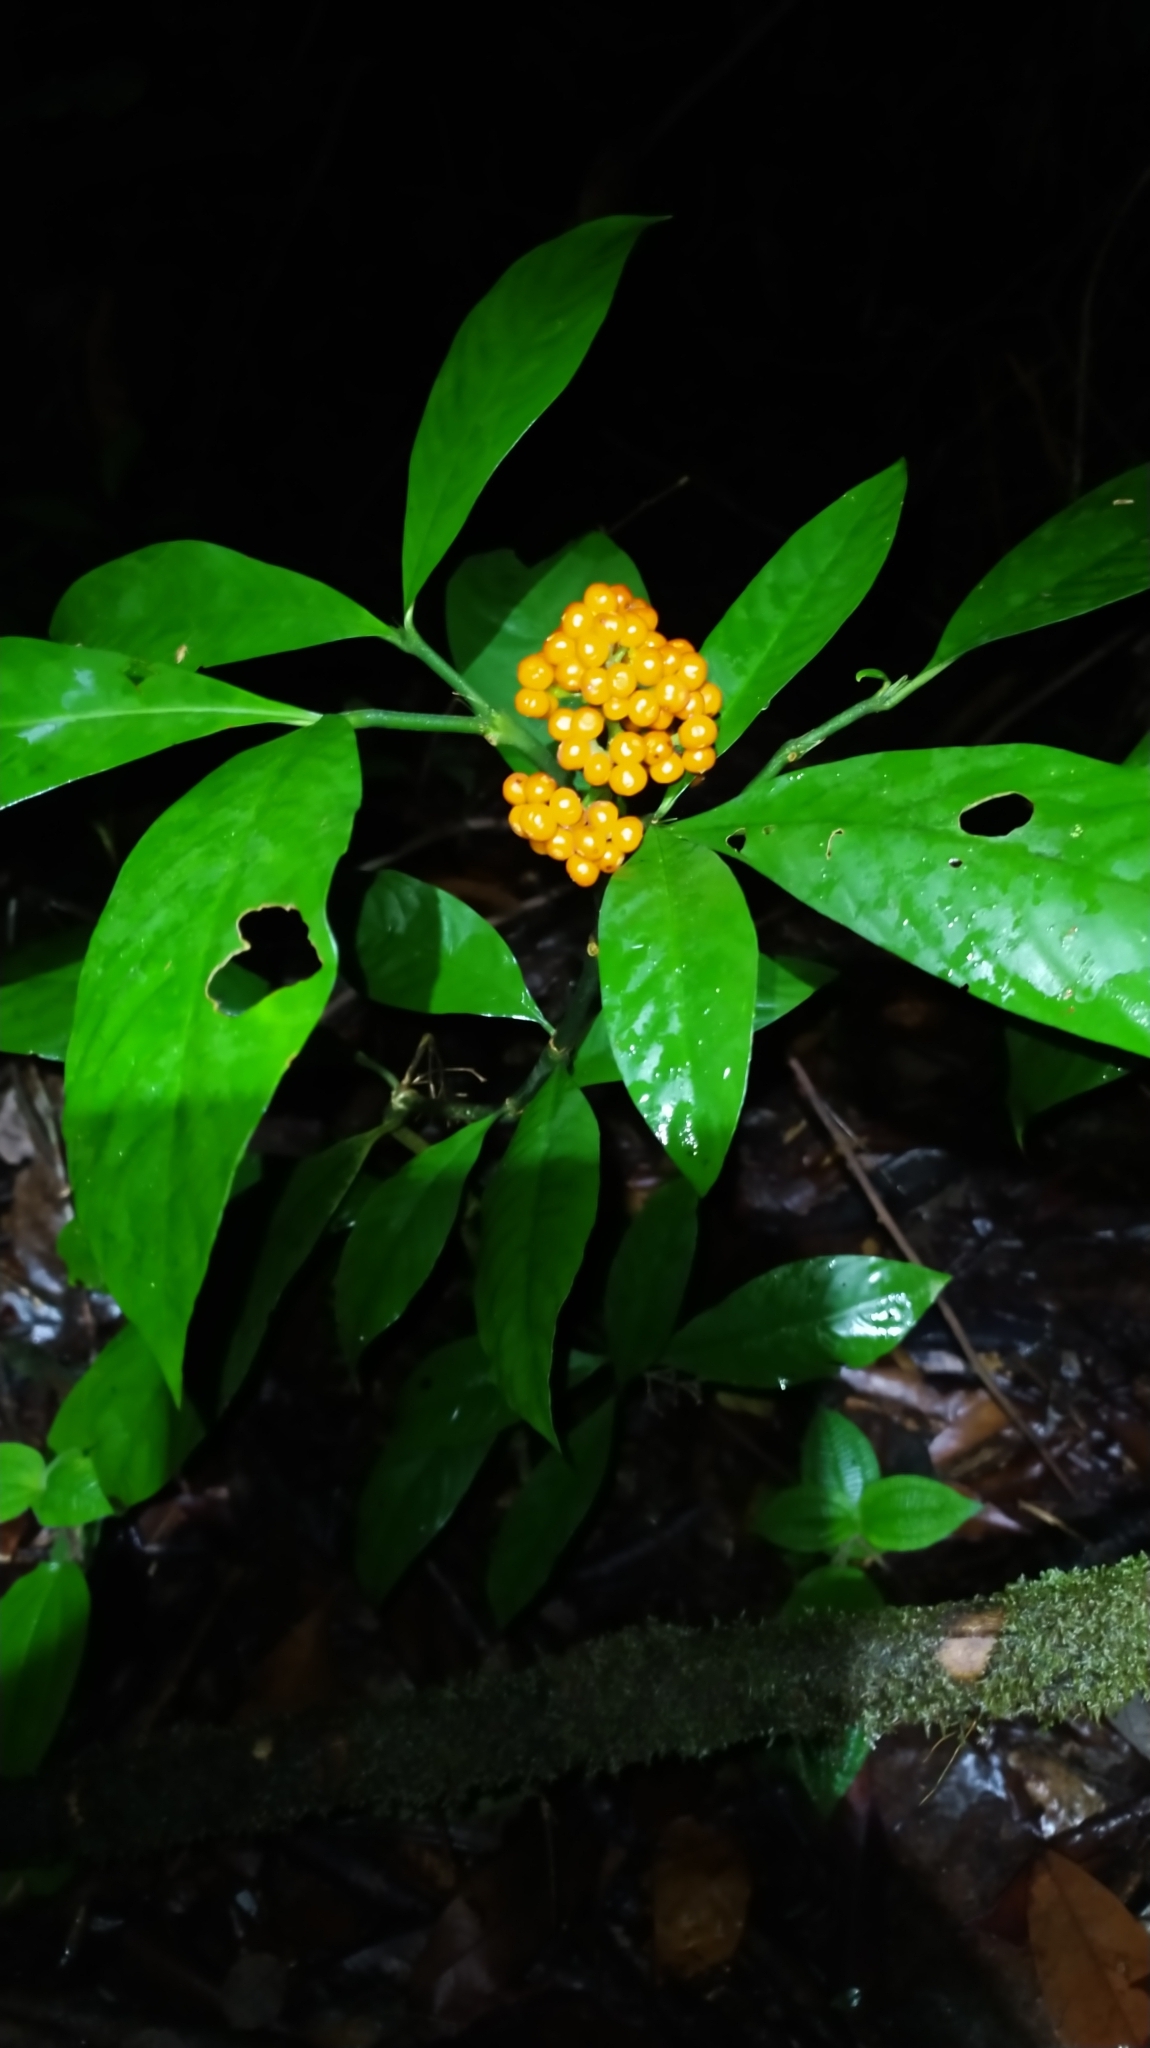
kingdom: Plantae
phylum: Tracheophyta
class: Magnoliopsida
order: Gentianales
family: Rubiaceae
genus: Palicourea
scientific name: Palicourea racemosa
